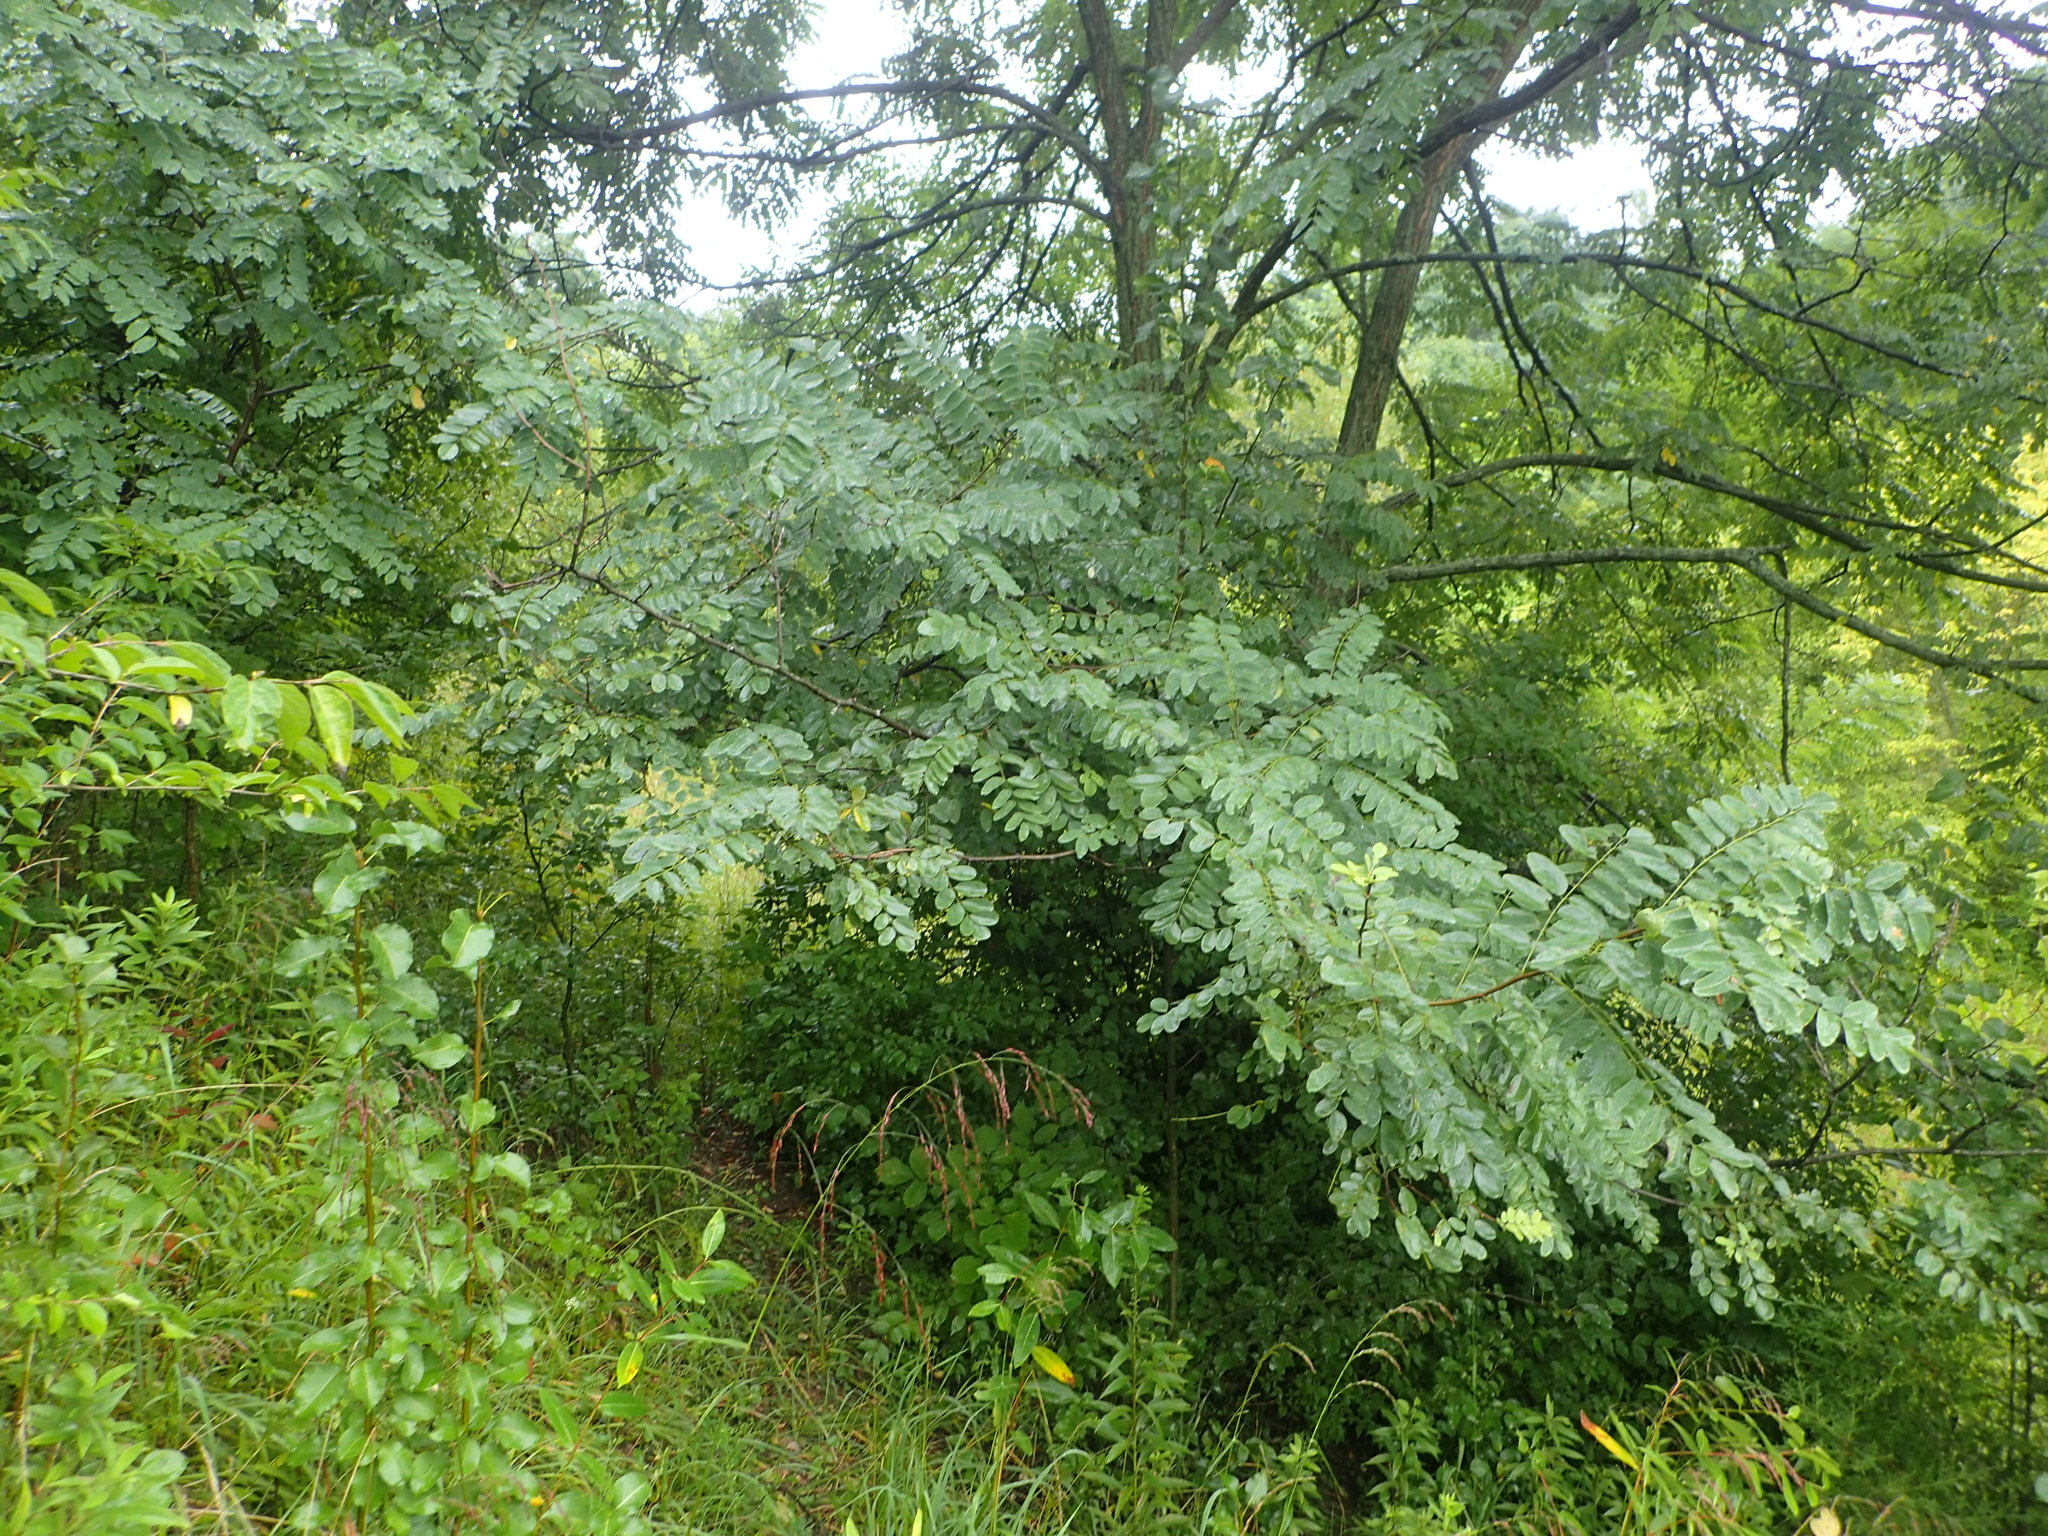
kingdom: Plantae
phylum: Tracheophyta
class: Magnoliopsida
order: Fabales
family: Fabaceae
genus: Robinia
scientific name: Robinia pseudoacacia
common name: Black locust
